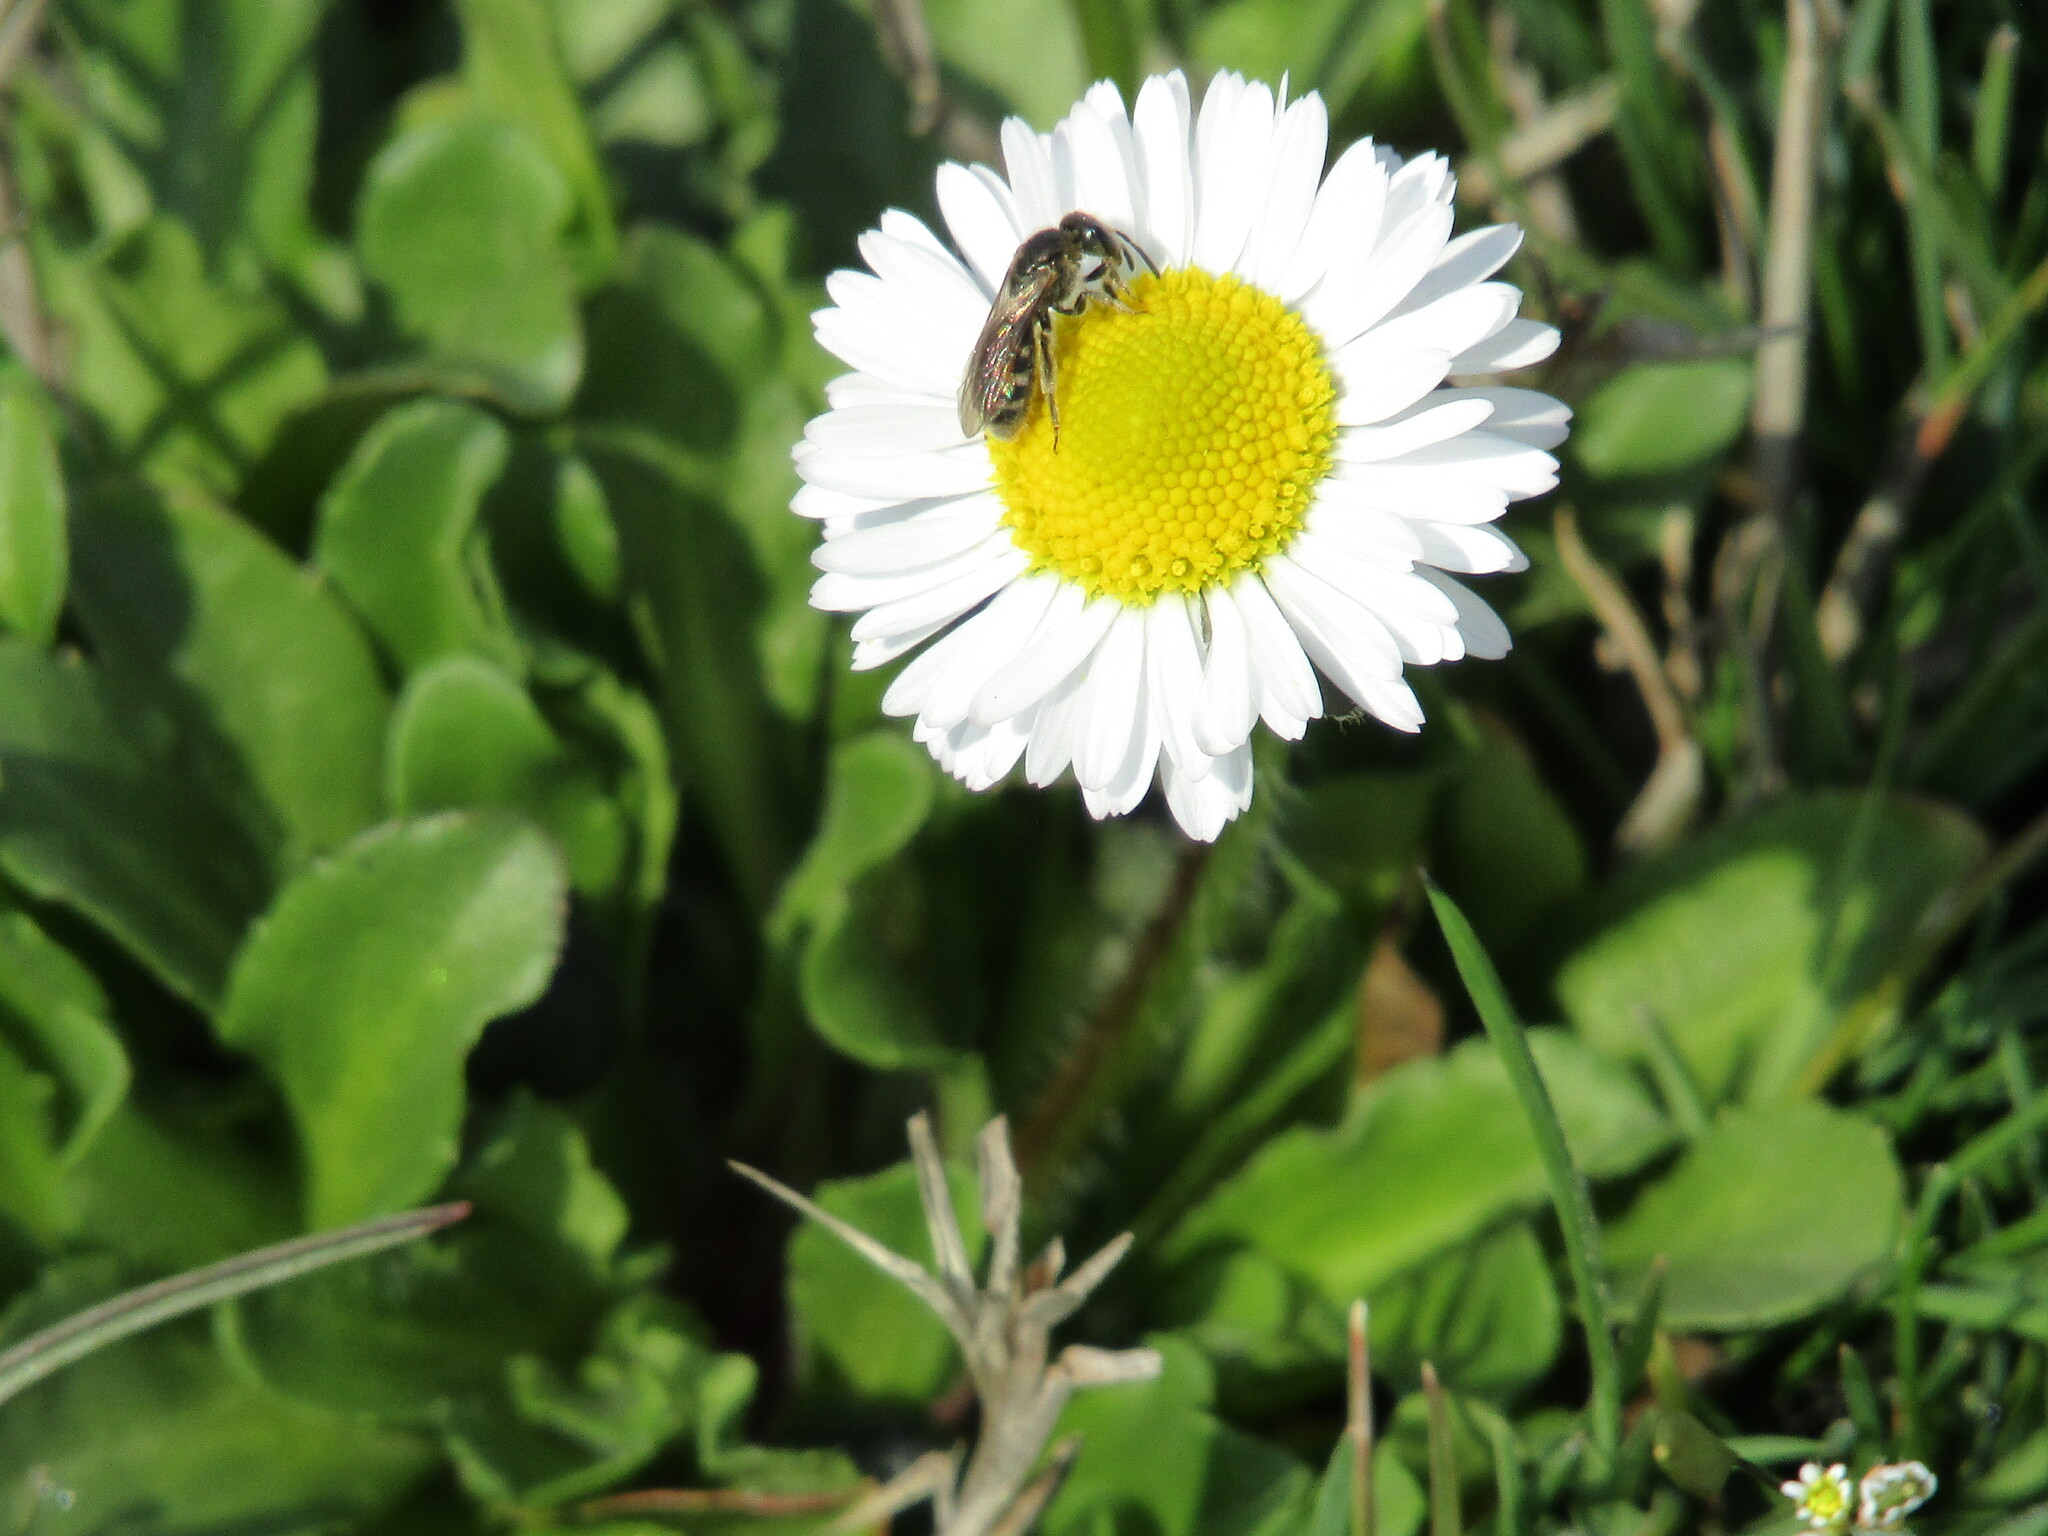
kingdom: Animalia
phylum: Arthropoda
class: Insecta
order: Hymenoptera
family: Halictidae
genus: Lasioglossum
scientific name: Lasioglossum
